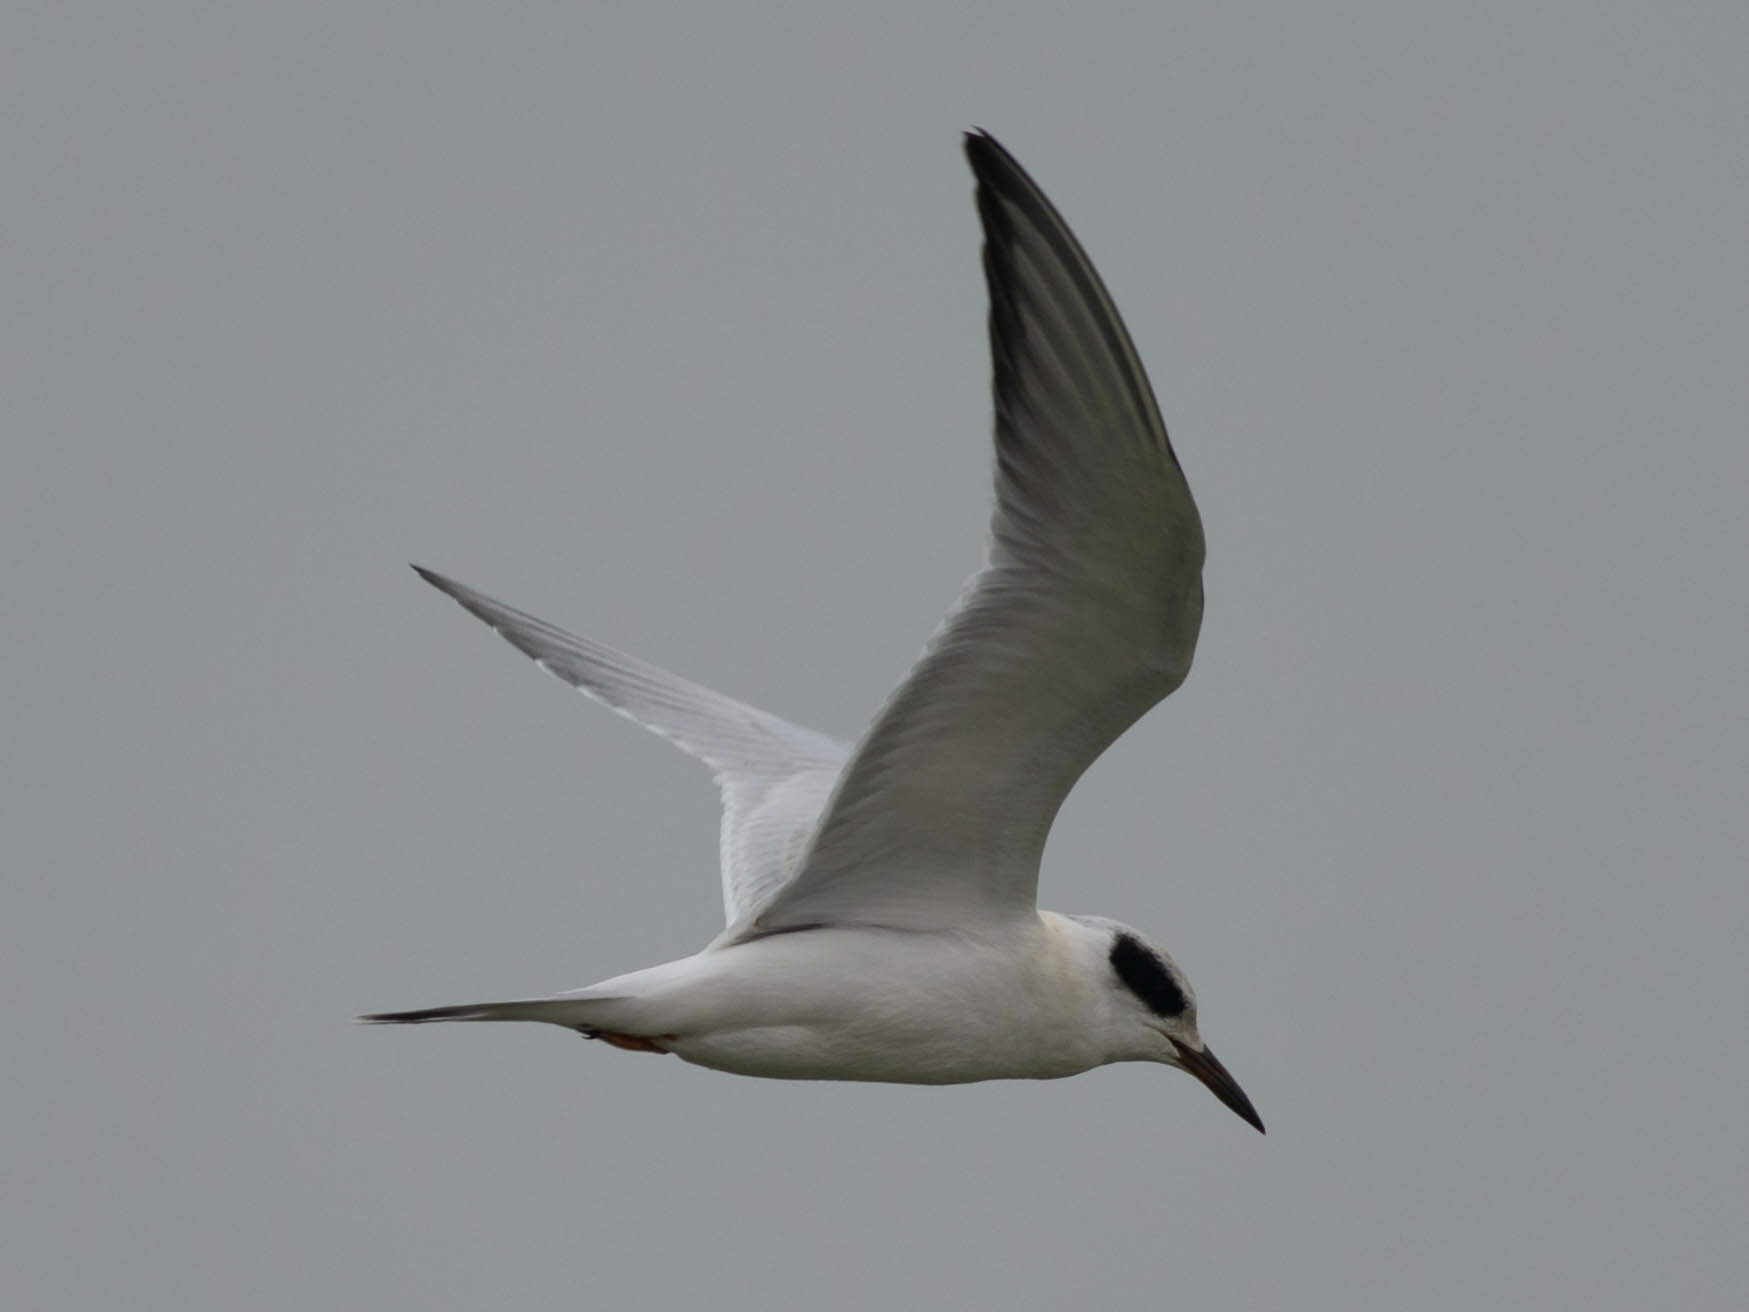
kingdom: Animalia
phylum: Chordata
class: Aves
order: Charadriiformes
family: Laridae
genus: Sterna
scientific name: Sterna hirundo
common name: Common tern
